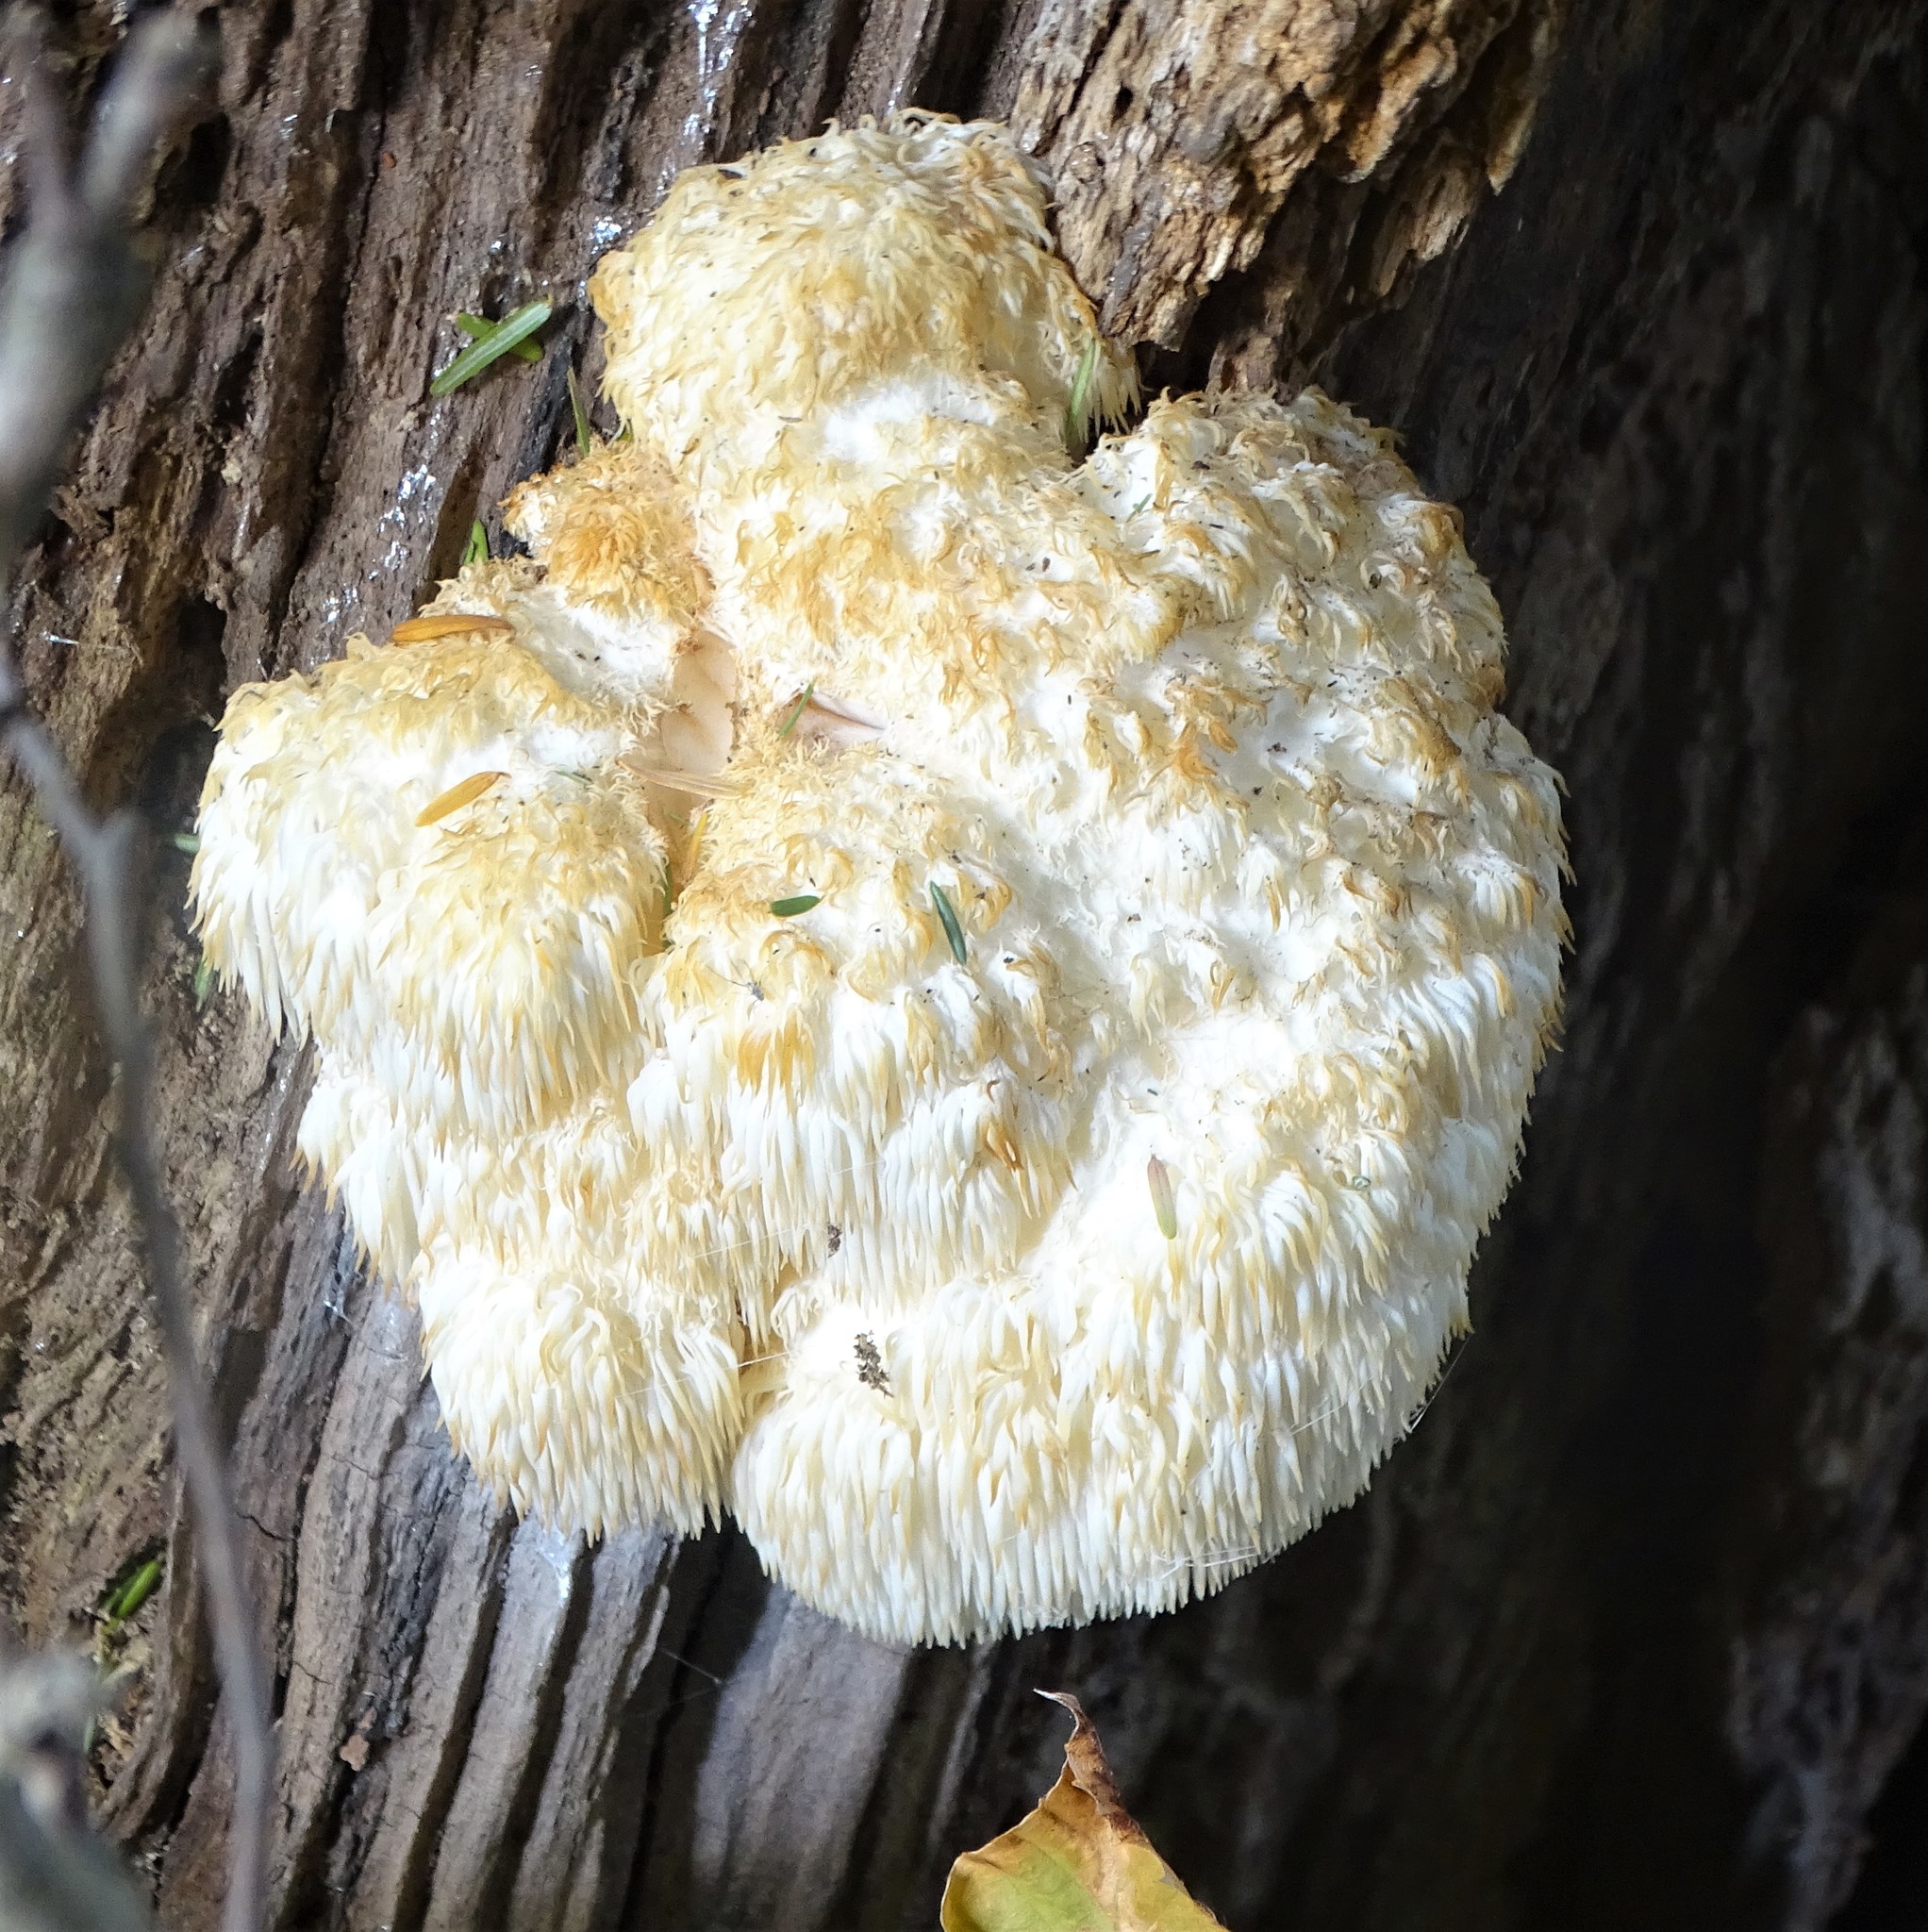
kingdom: Fungi
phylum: Basidiomycota
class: Agaricomycetes
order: Russulales
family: Hericiaceae
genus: Hericium
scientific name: Hericium americanum
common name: Bear's head tooth
